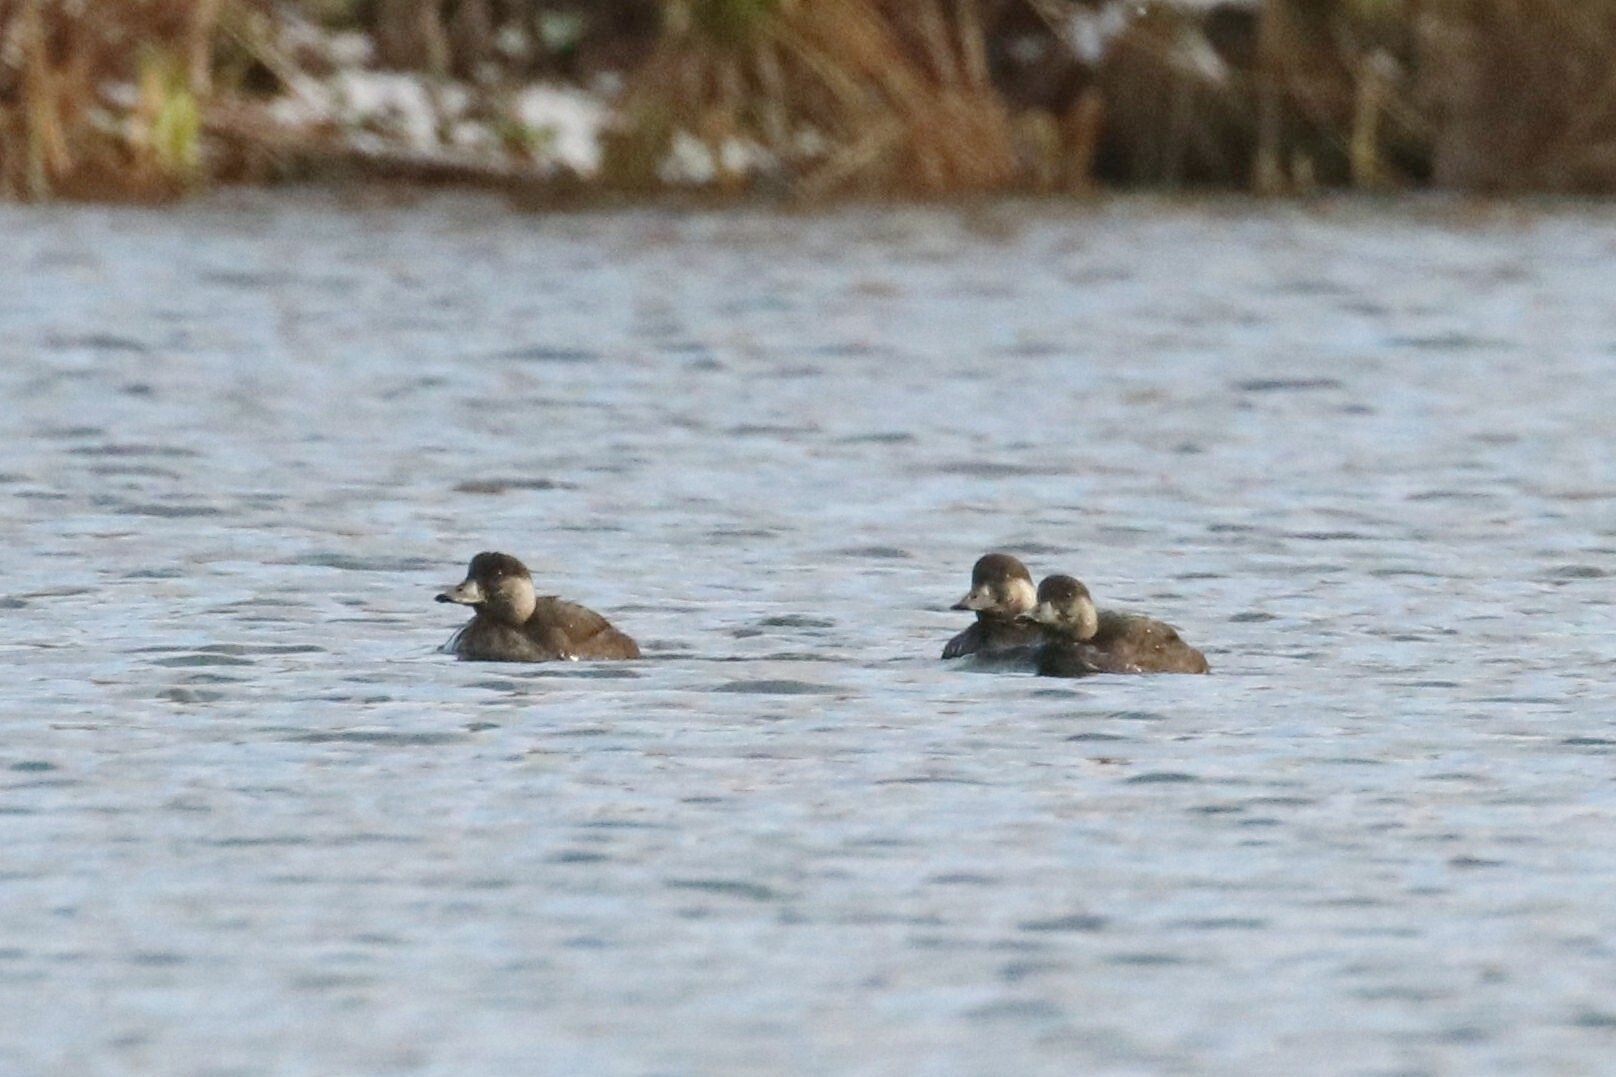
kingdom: Animalia
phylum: Chordata
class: Aves
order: Anseriformes
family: Anatidae
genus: Melanitta
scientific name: Melanitta nigra
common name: Common scoter
